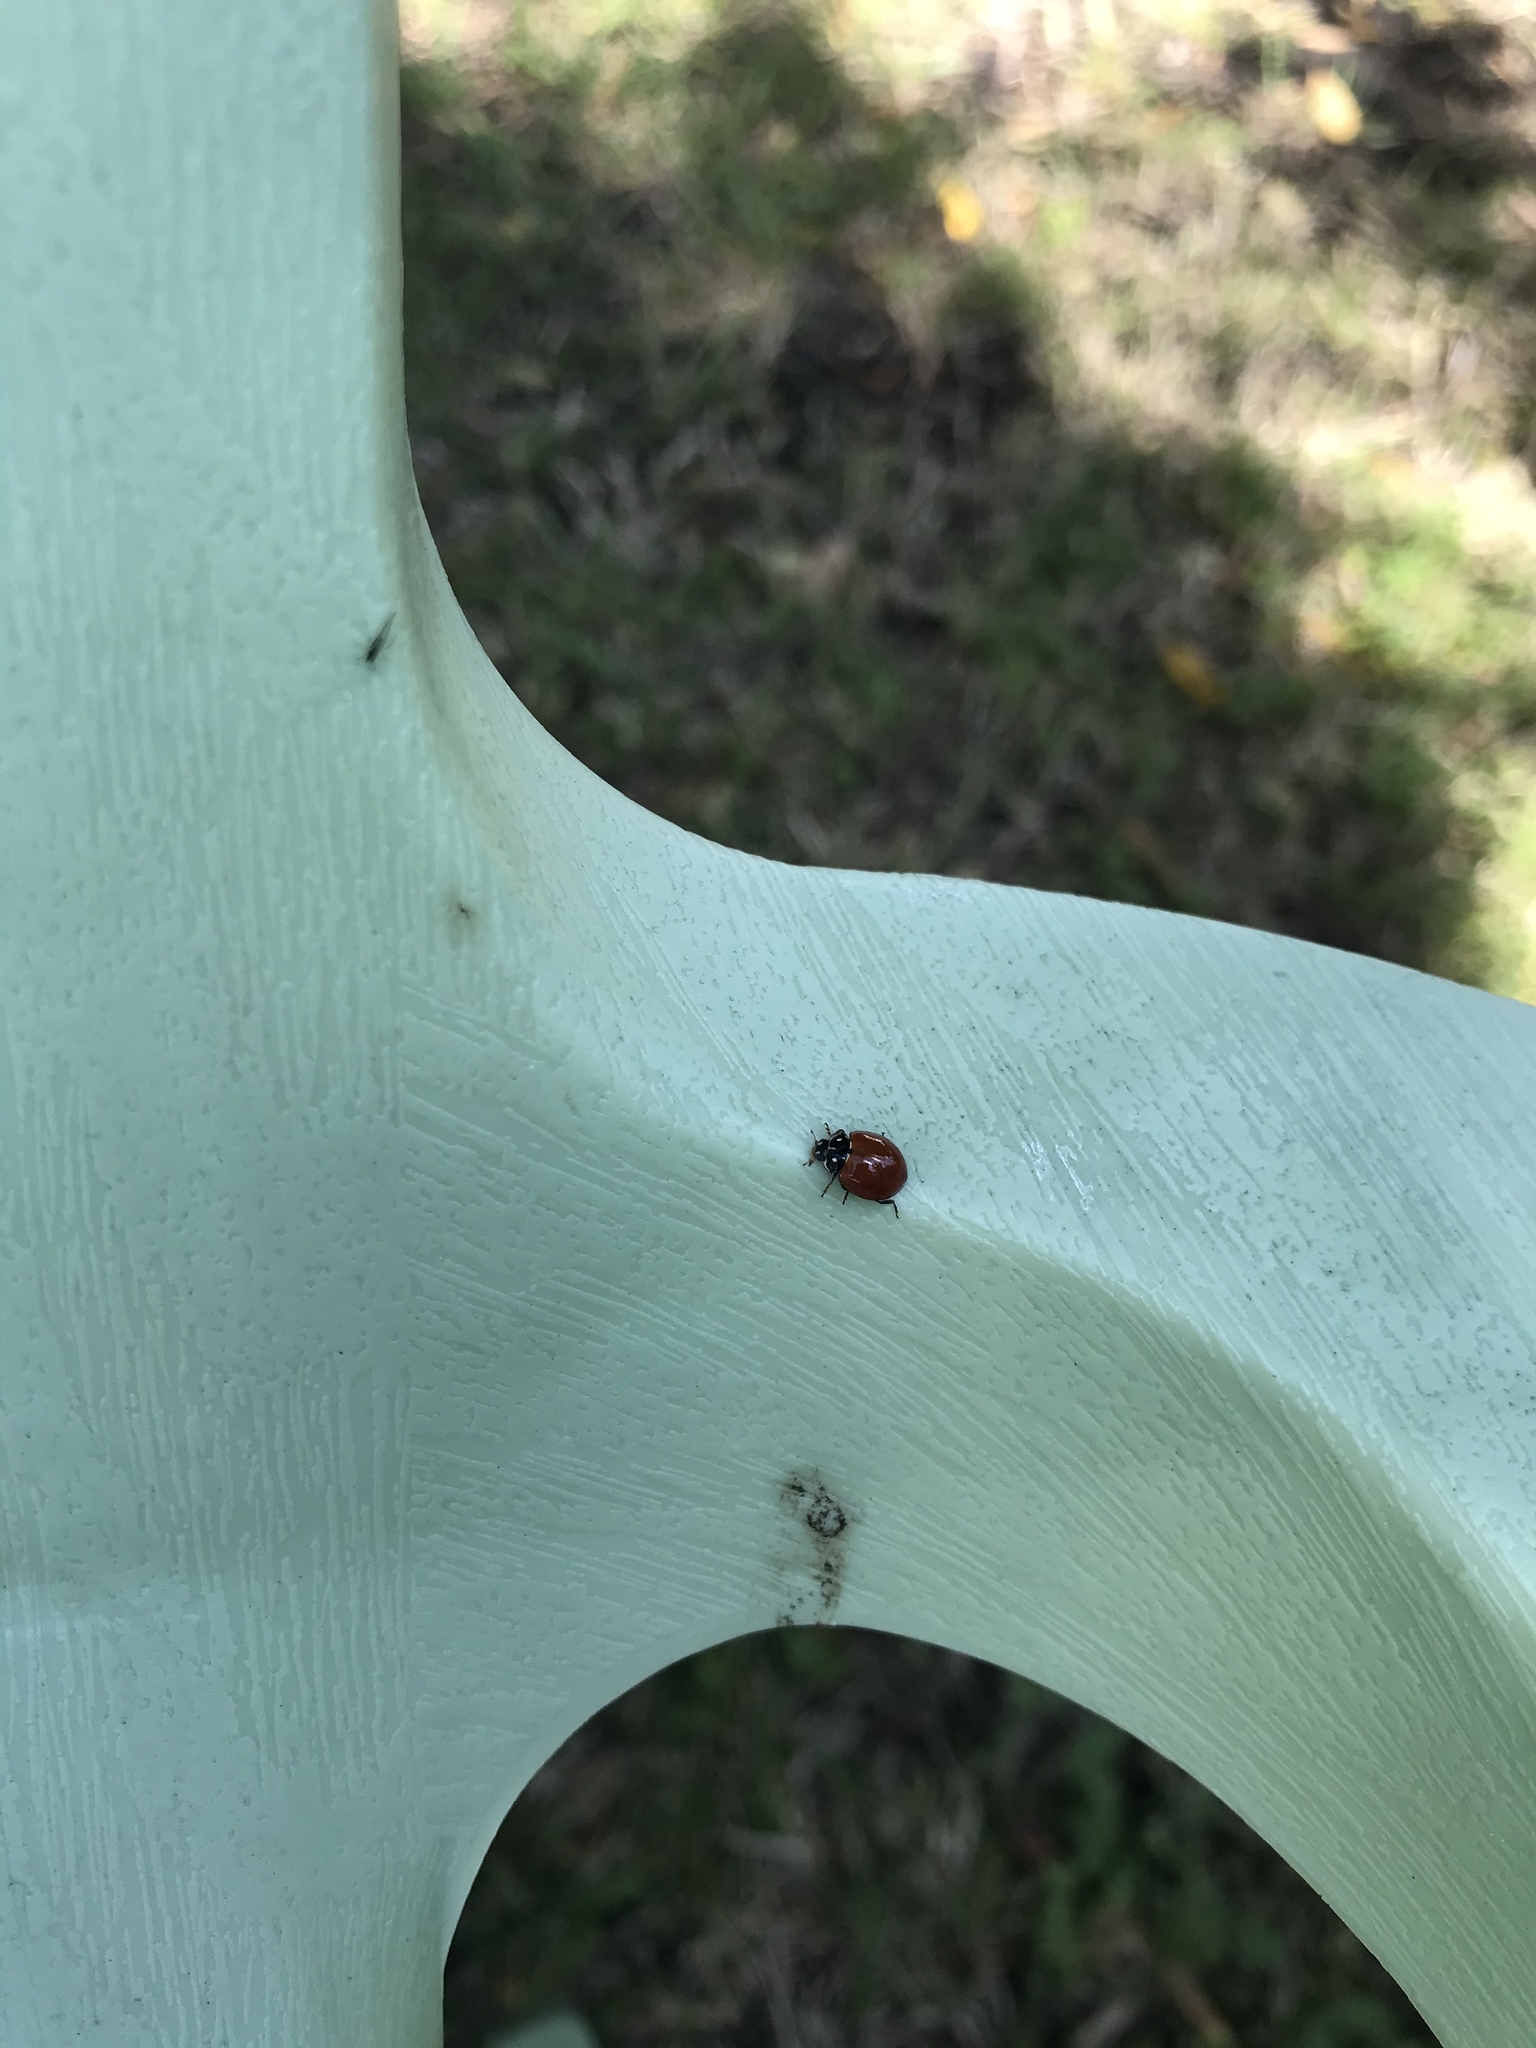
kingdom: Animalia
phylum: Arthropoda
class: Insecta
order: Coleoptera
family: Coccinellidae
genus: Cycloneda
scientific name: Cycloneda sanguinea
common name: Ladybird beetle
